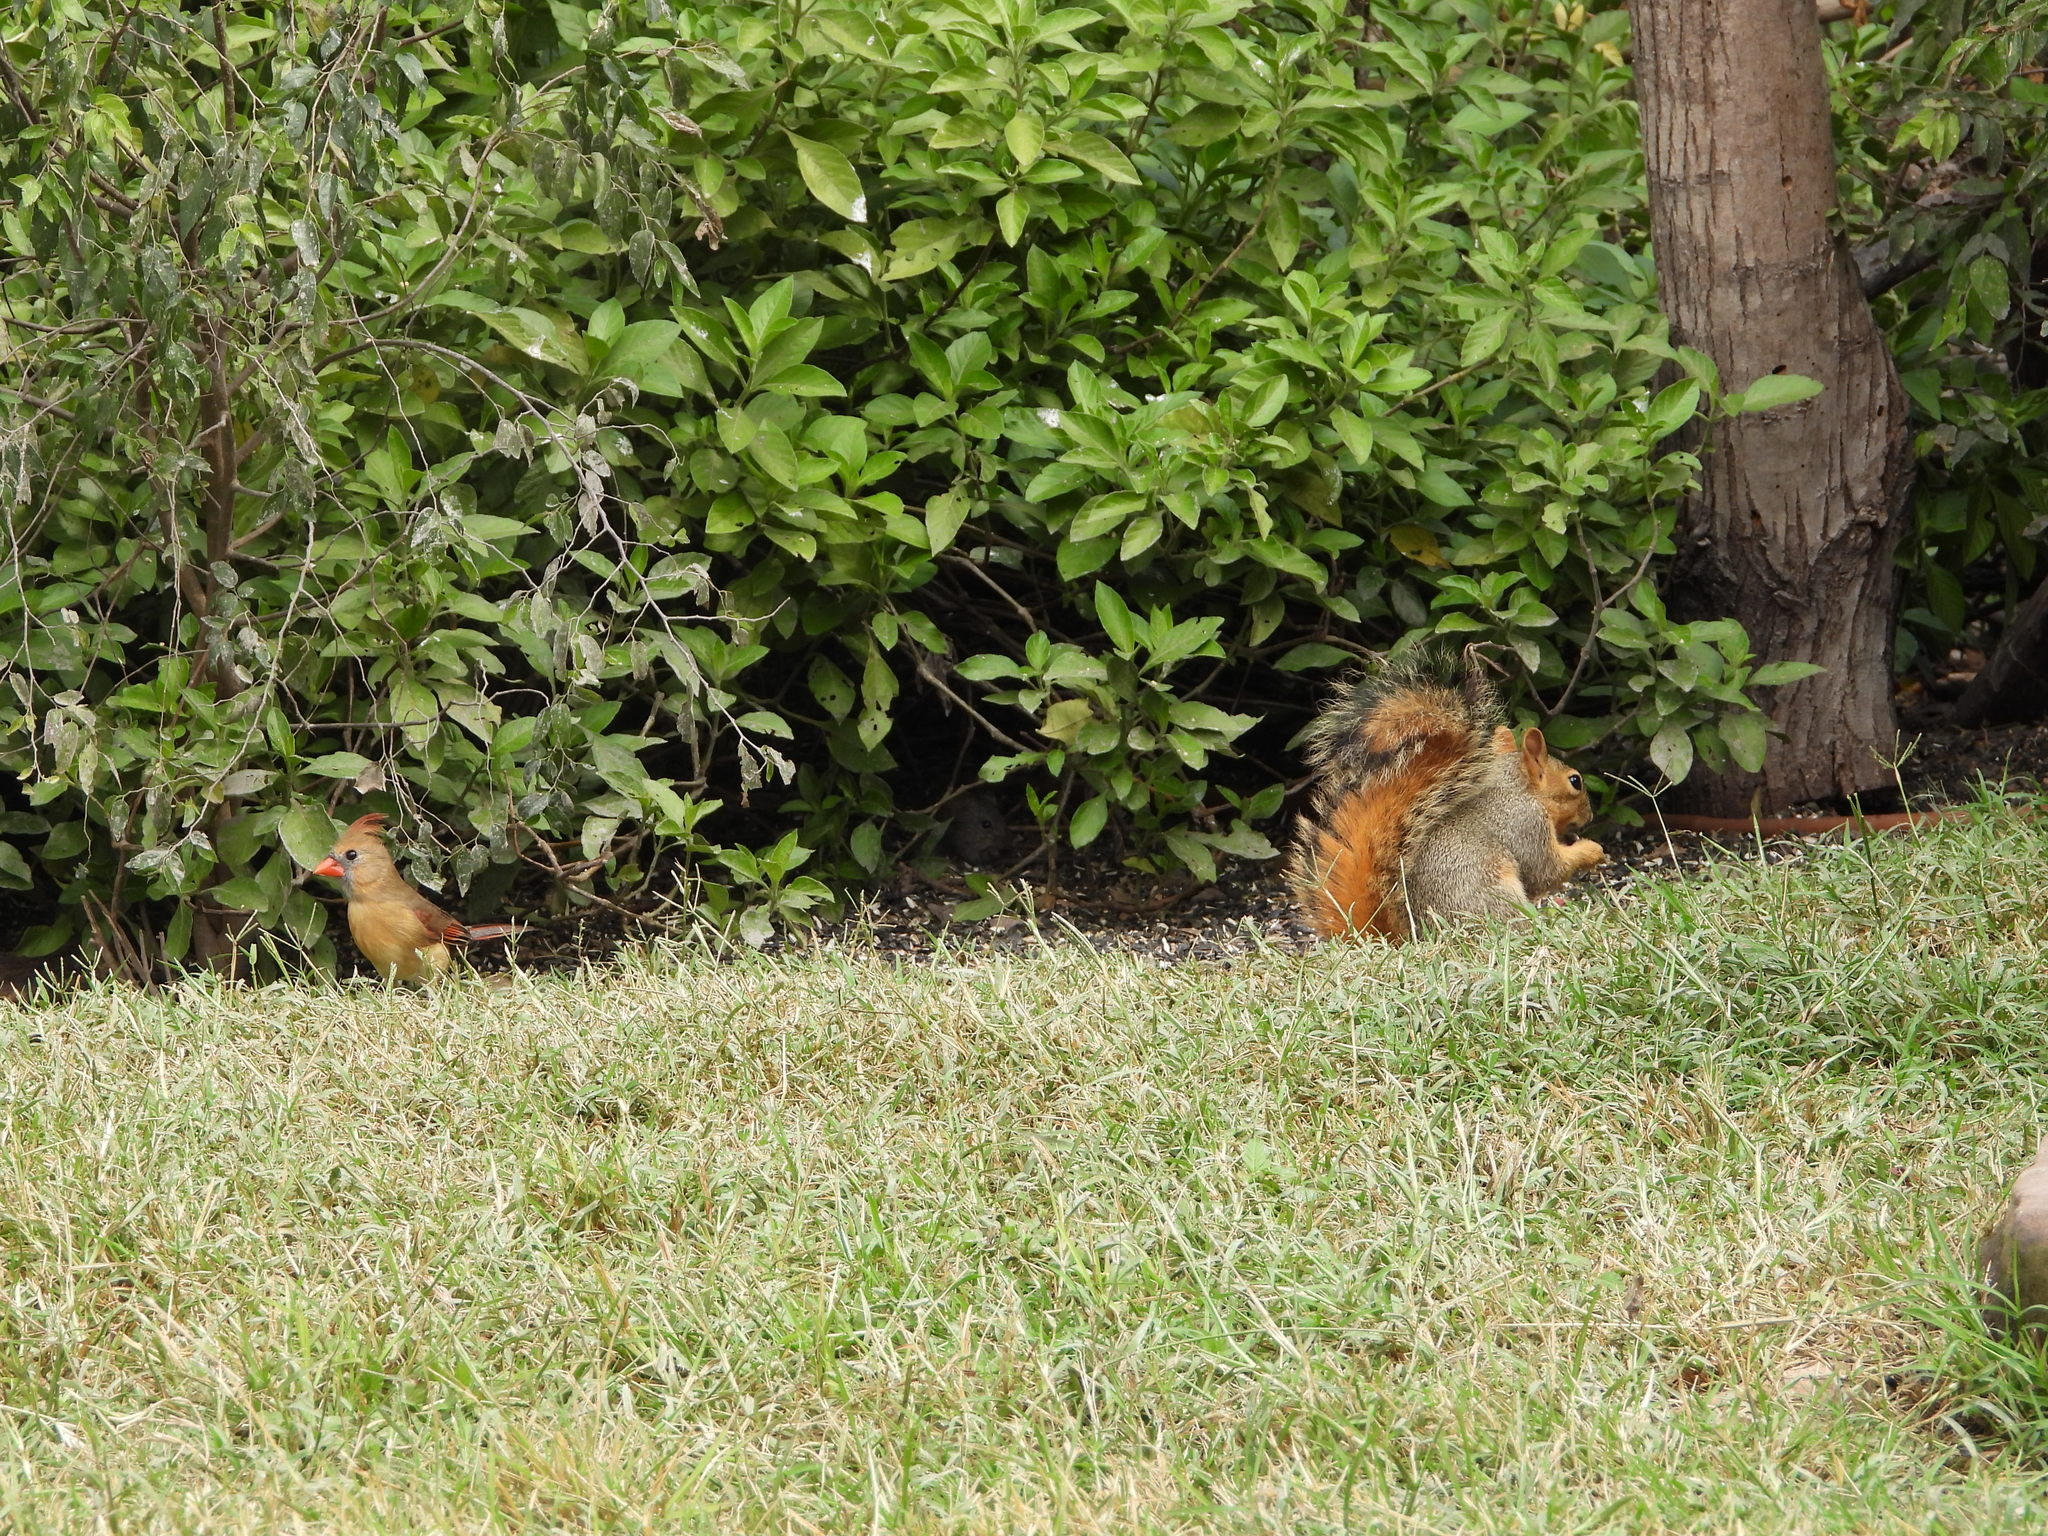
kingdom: Animalia
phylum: Chordata
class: Mammalia
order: Rodentia
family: Sciuridae
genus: Sciurus
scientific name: Sciurus niger
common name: Fox squirrel
